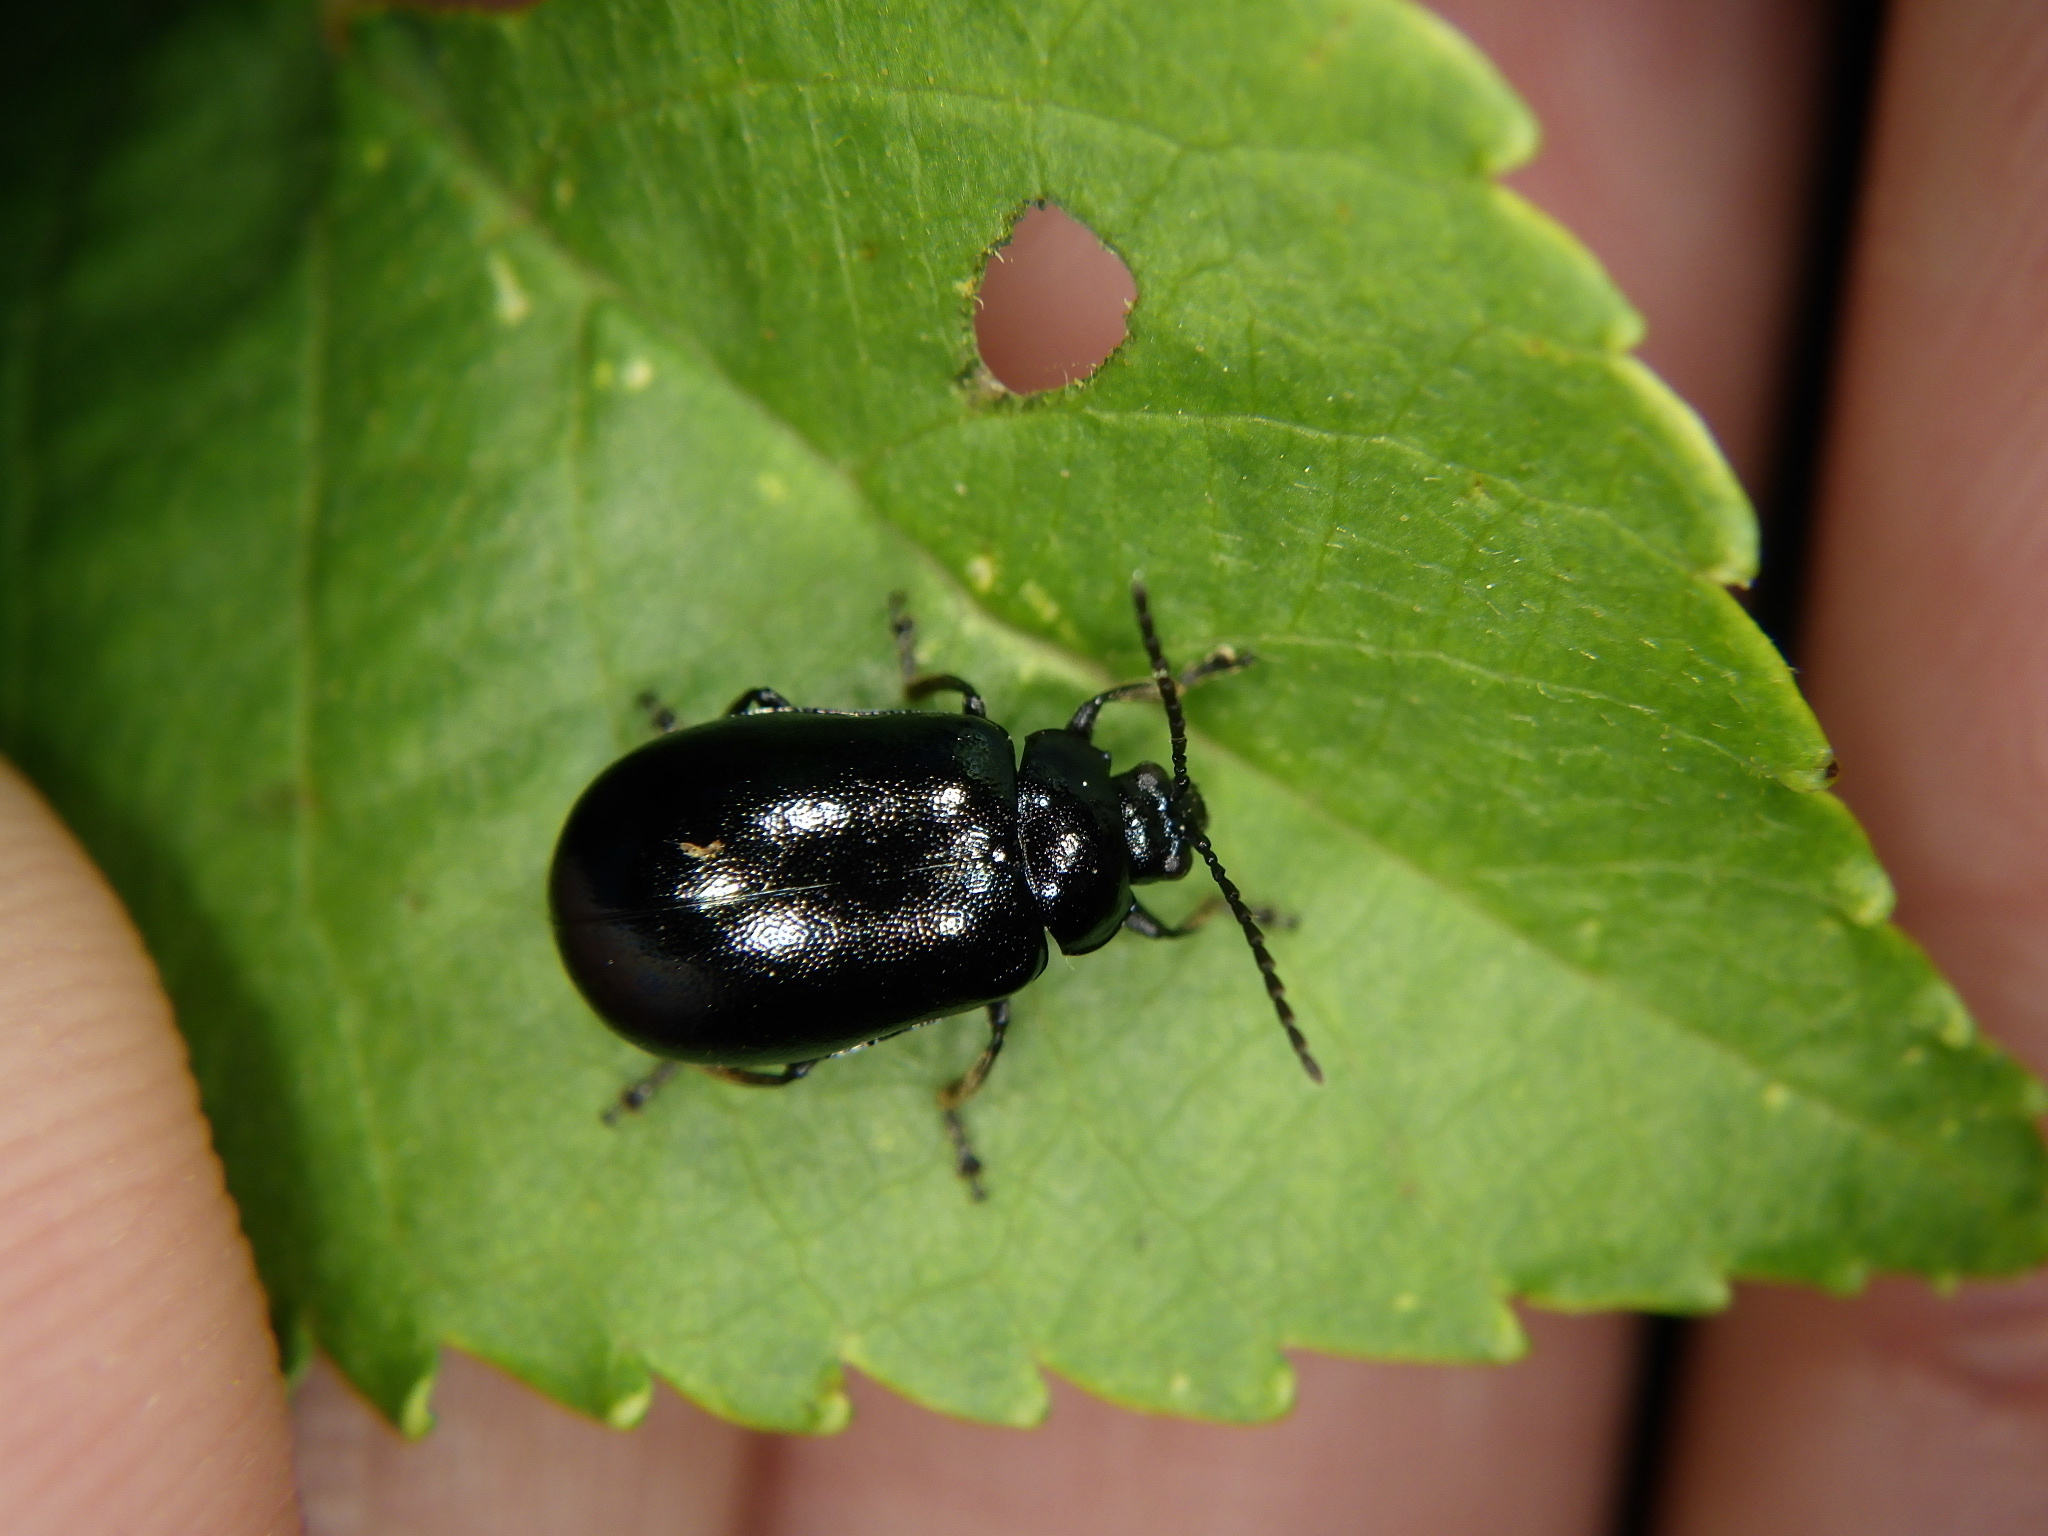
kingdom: Animalia
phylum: Arthropoda
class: Insecta
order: Coleoptera
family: Chrysomelidae
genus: Agelastica
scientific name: Agelastica coerulea
